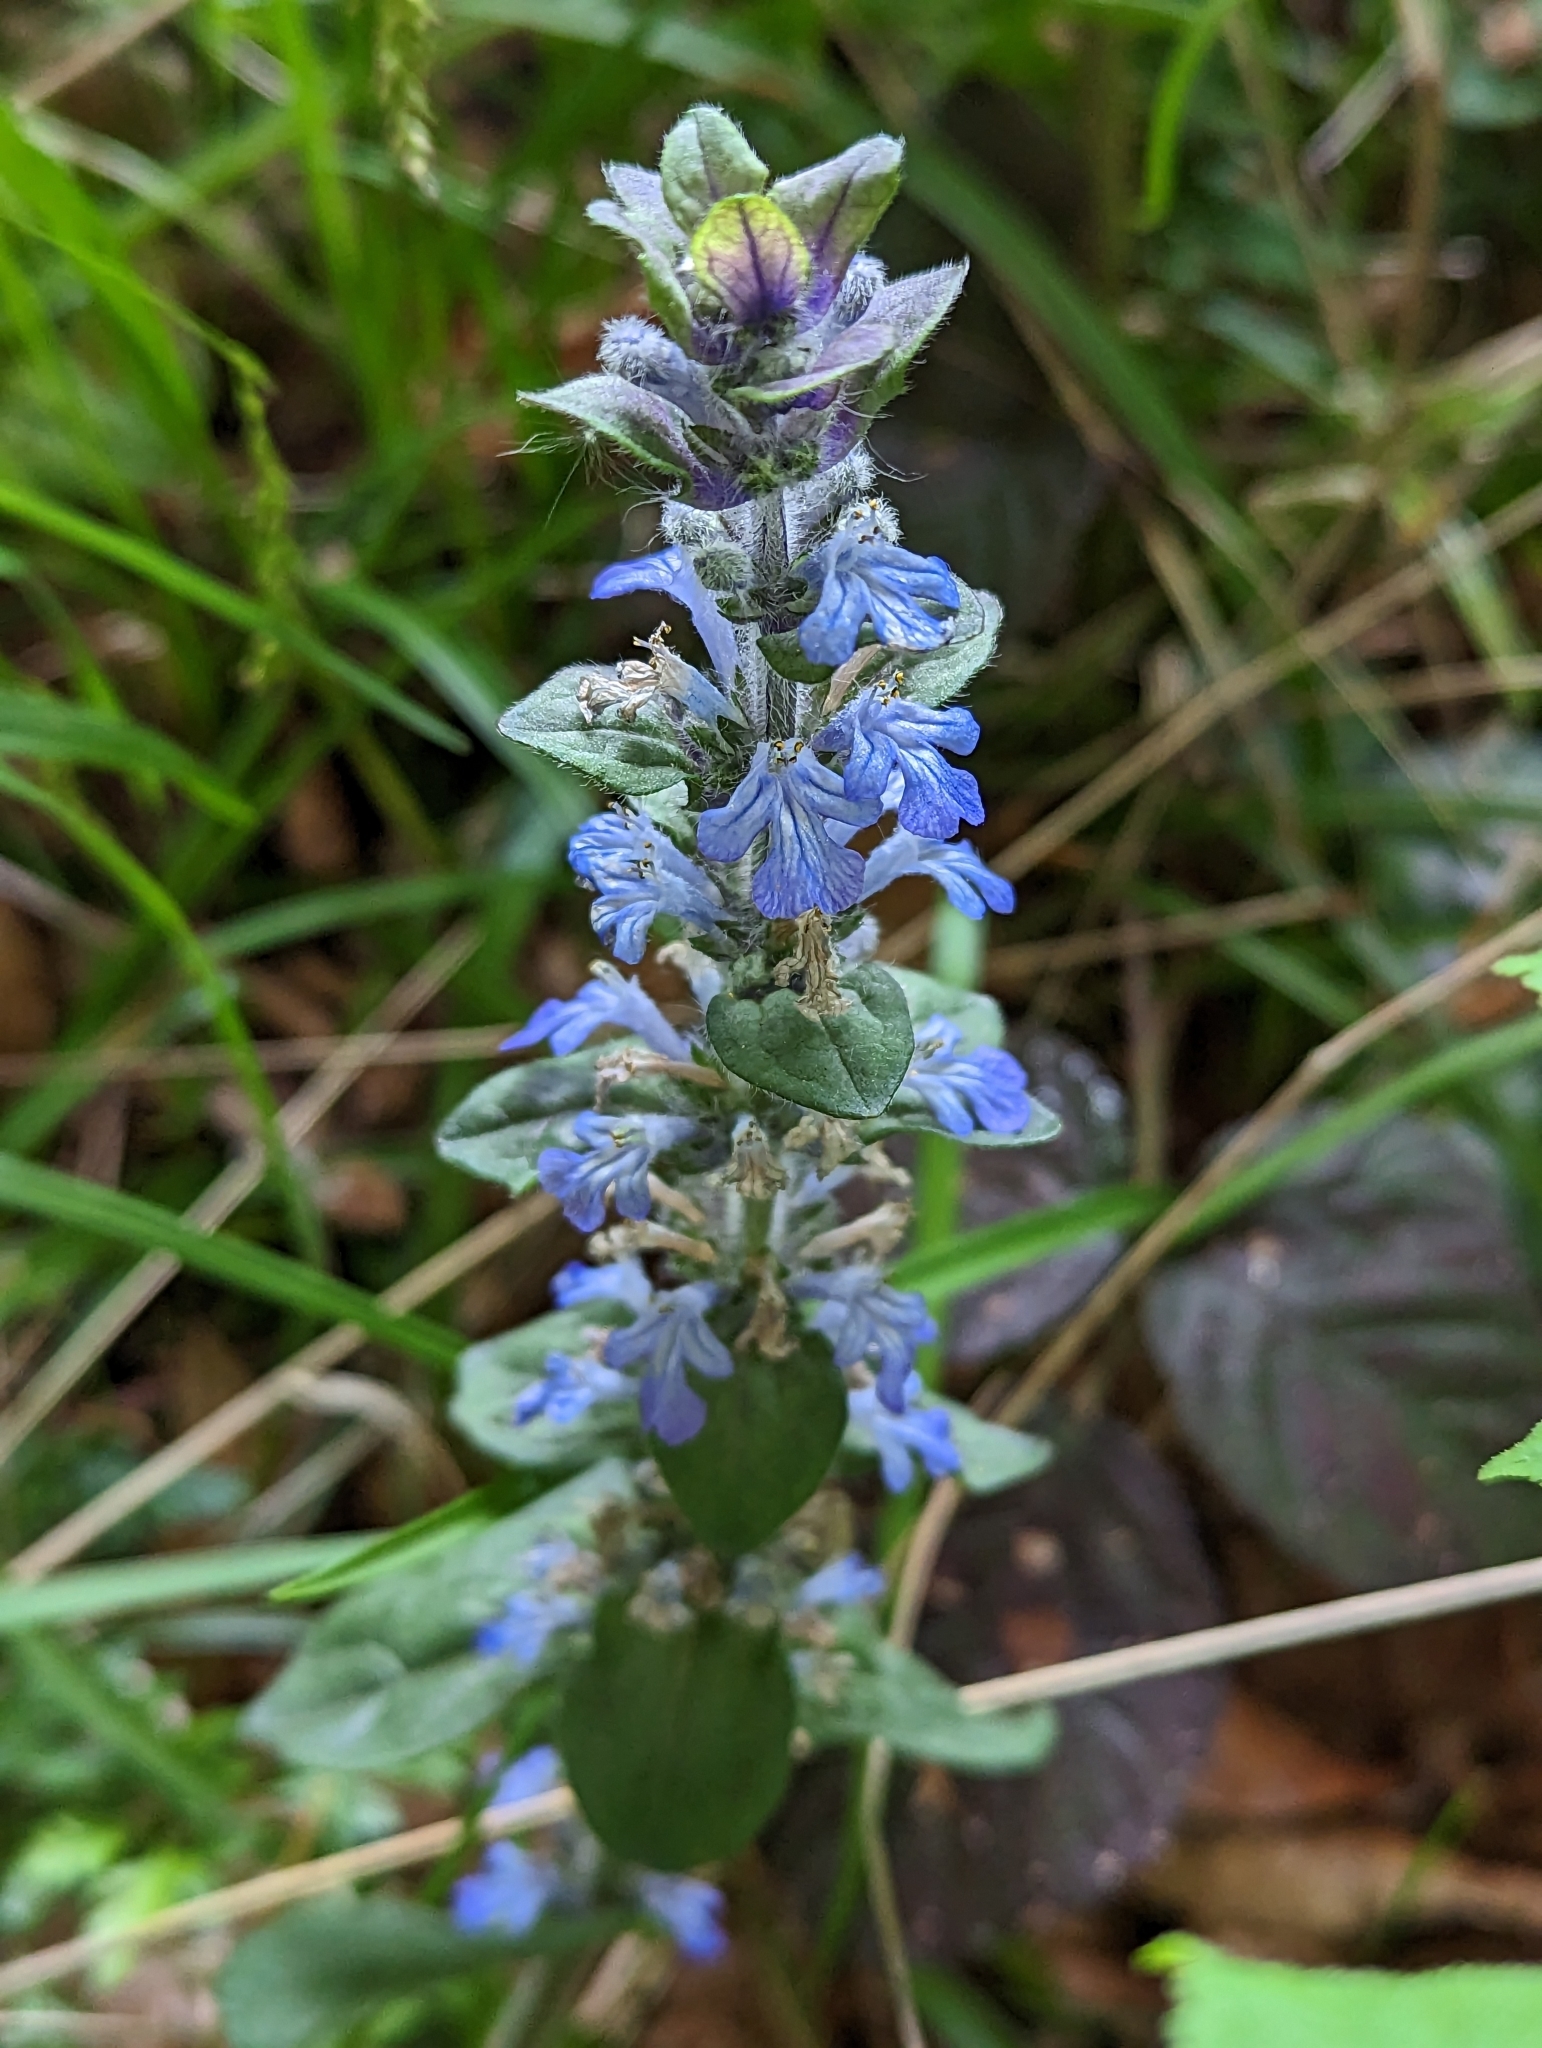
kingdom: Plantae
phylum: Tracheophyta
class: Magnoliopsida
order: Lamiales
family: Lamiaceae
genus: Ajuga
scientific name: Ajuga reptans
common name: Bugle
